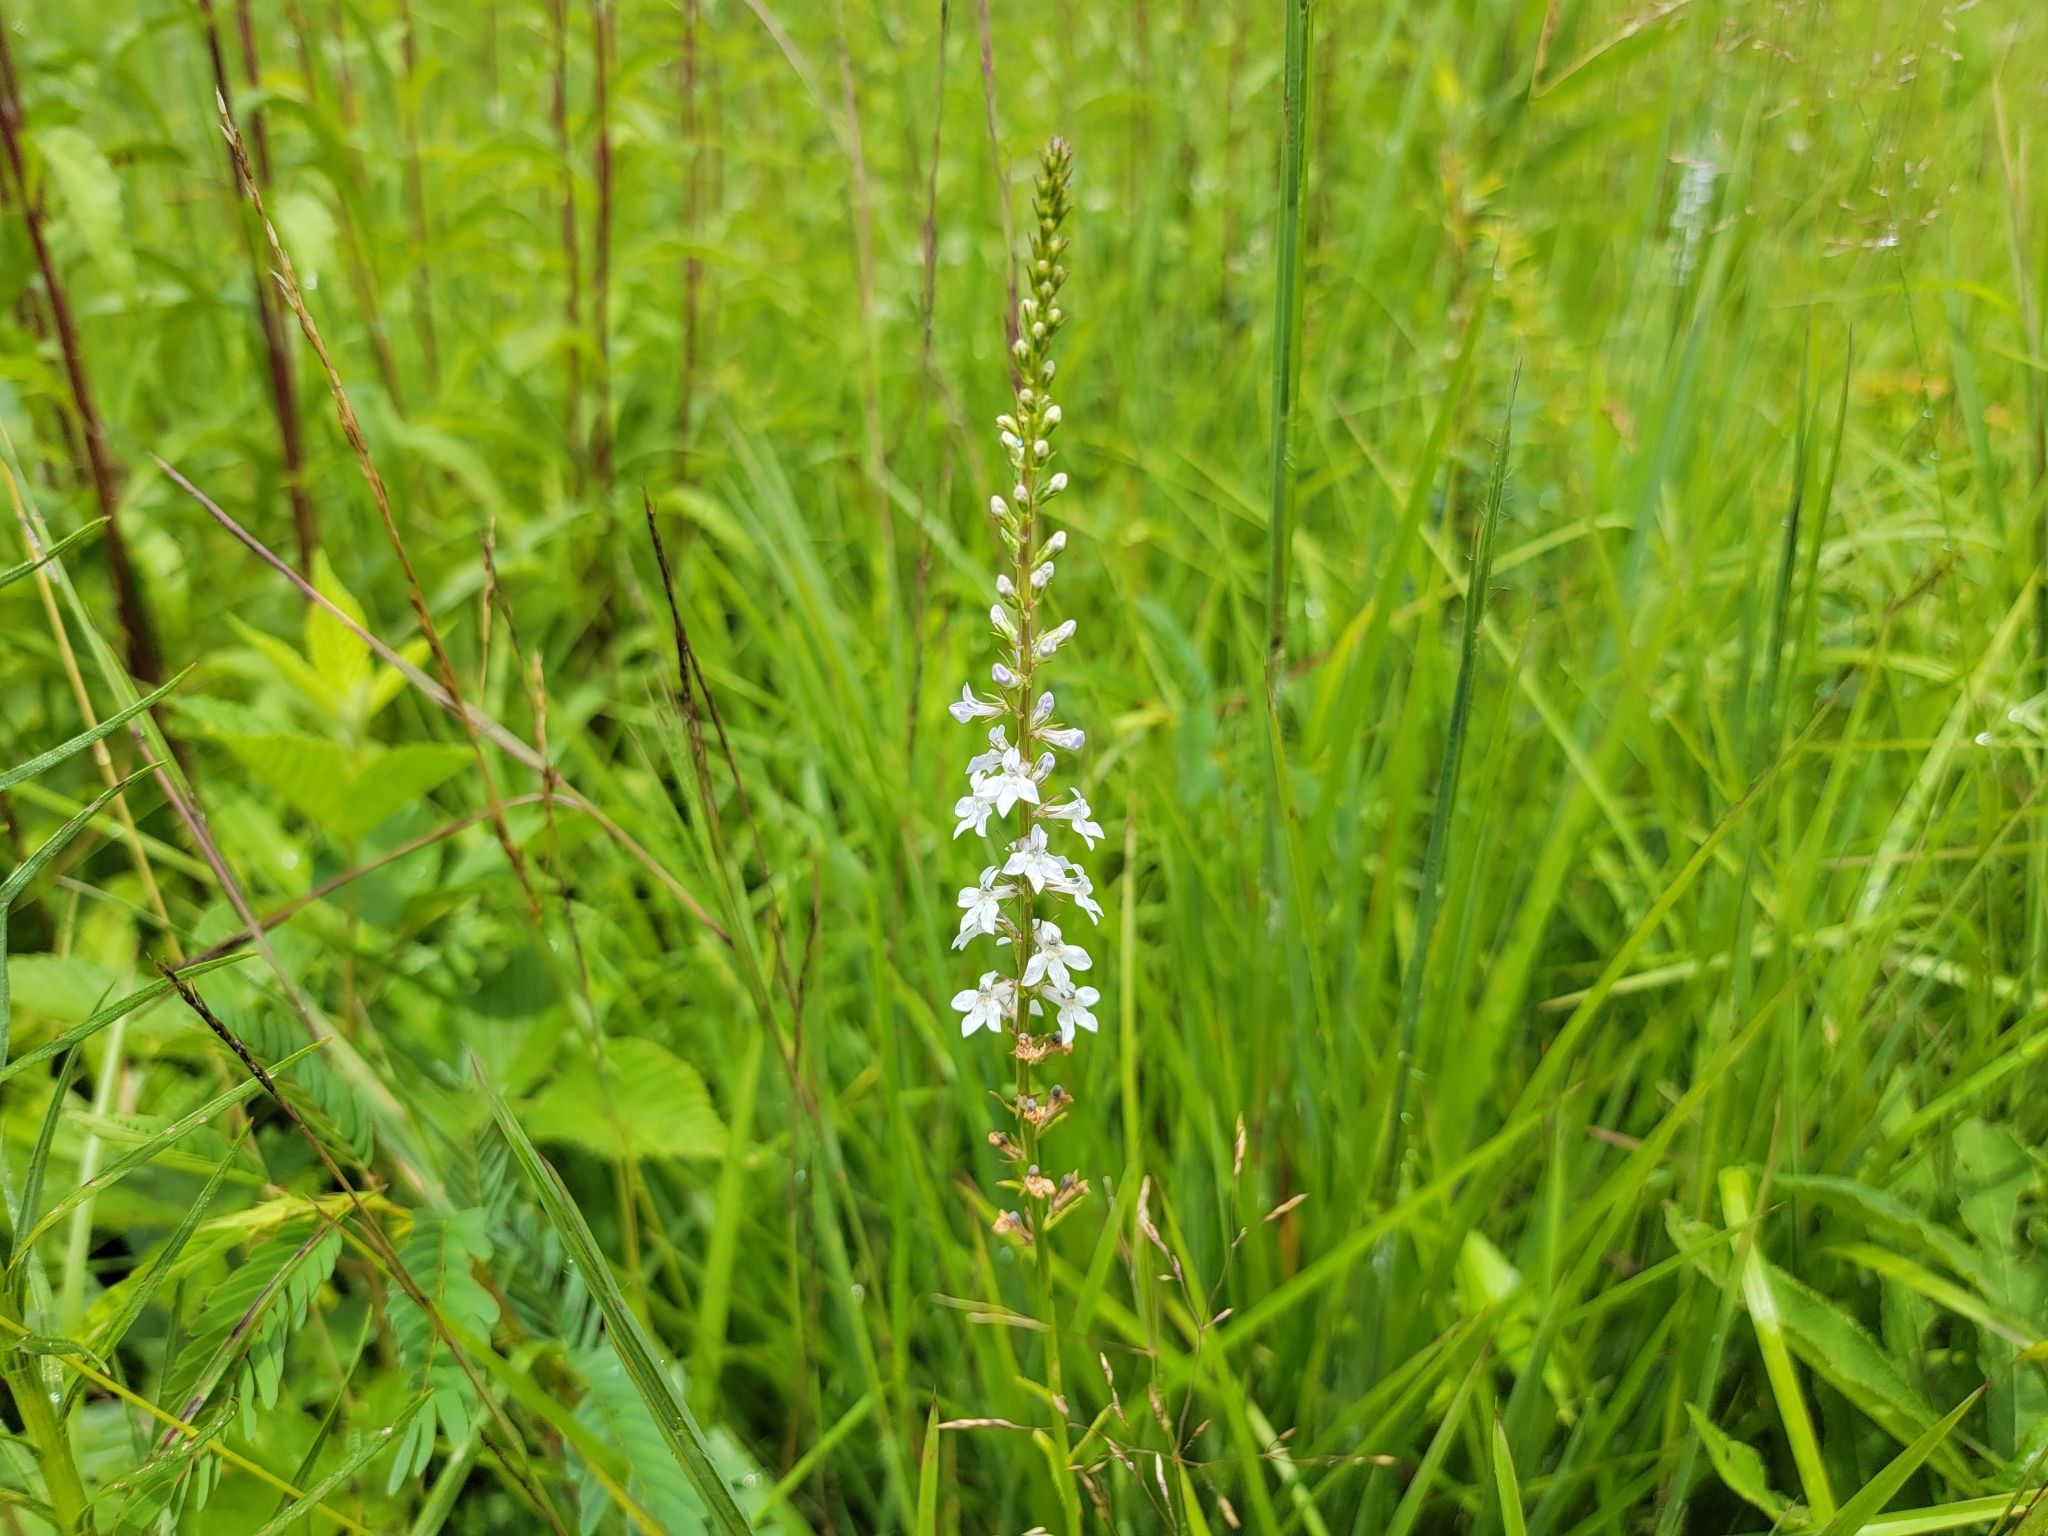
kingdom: Plantae
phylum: Tracheophyta
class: Magnoliopsida
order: Asterales
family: Campanulaceae
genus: Lobelia
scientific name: Lobelia spicata
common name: Pale-spike lobelia
